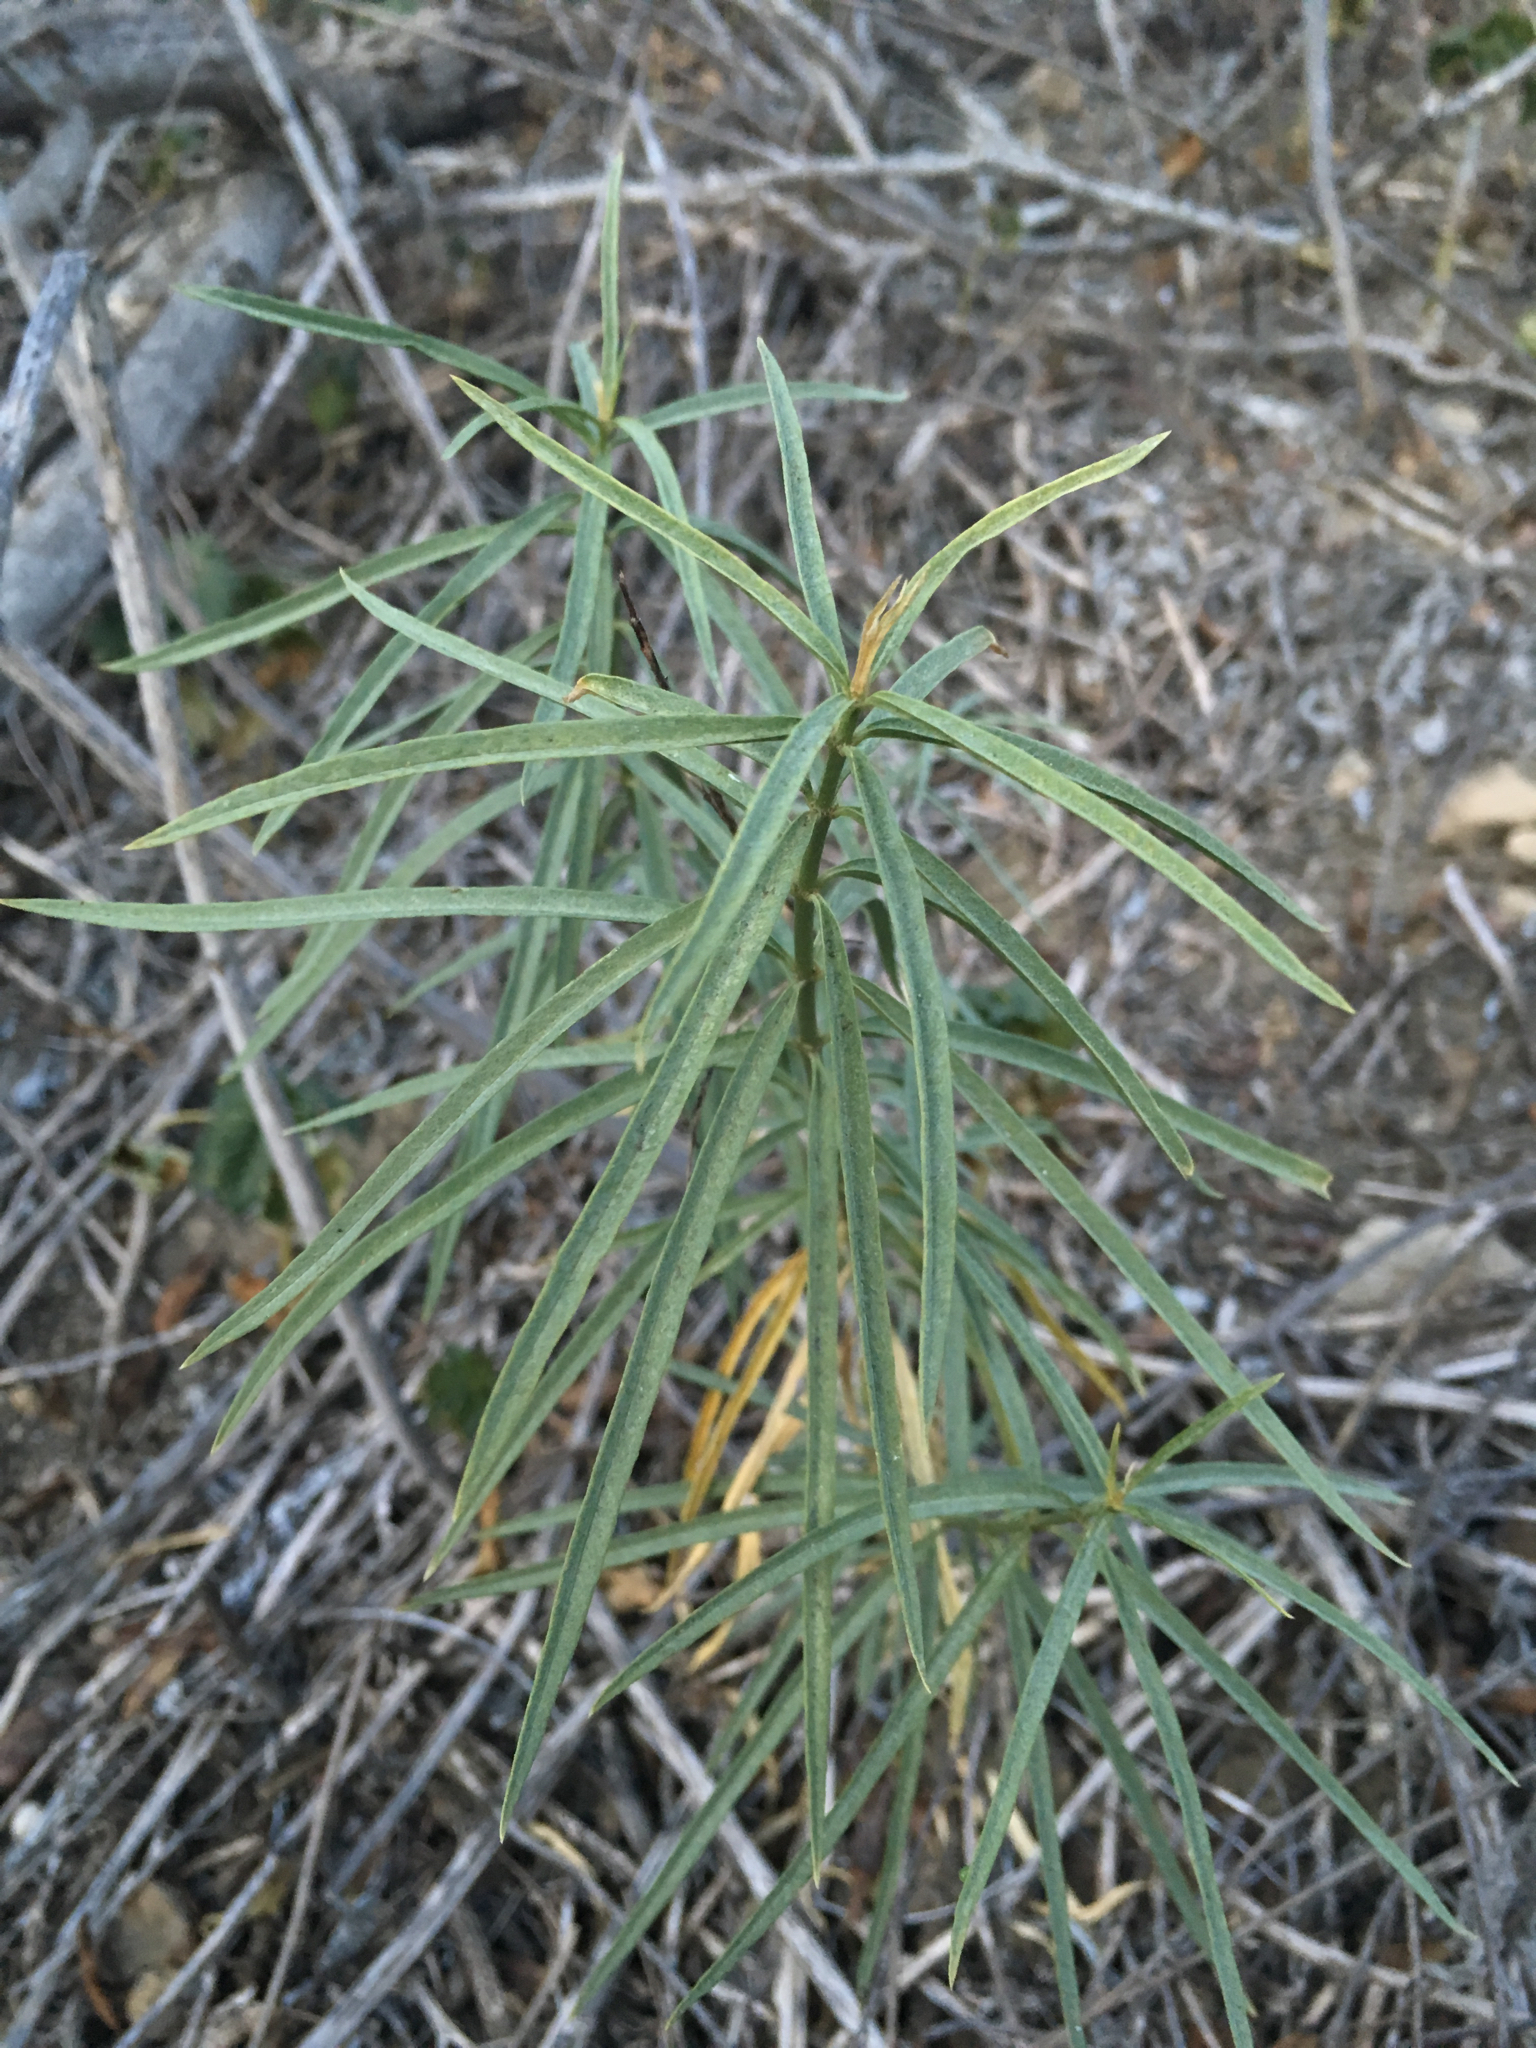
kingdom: Plantae
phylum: Tracheophyta
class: Magnoliopsida
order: Gentianales
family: Apocynaceae
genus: Asclepias
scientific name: Asclepias fascicularis
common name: Mexican milkweed
